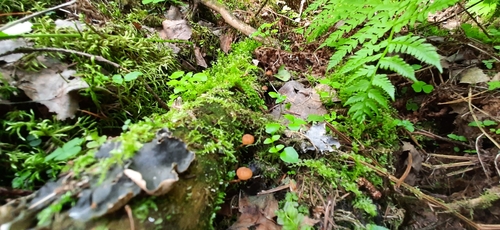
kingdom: Fungi
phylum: Basidiomycota
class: Agaricomycetes
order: Agaricales
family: Hymenogastraceae
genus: Galerina
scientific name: Galerina
